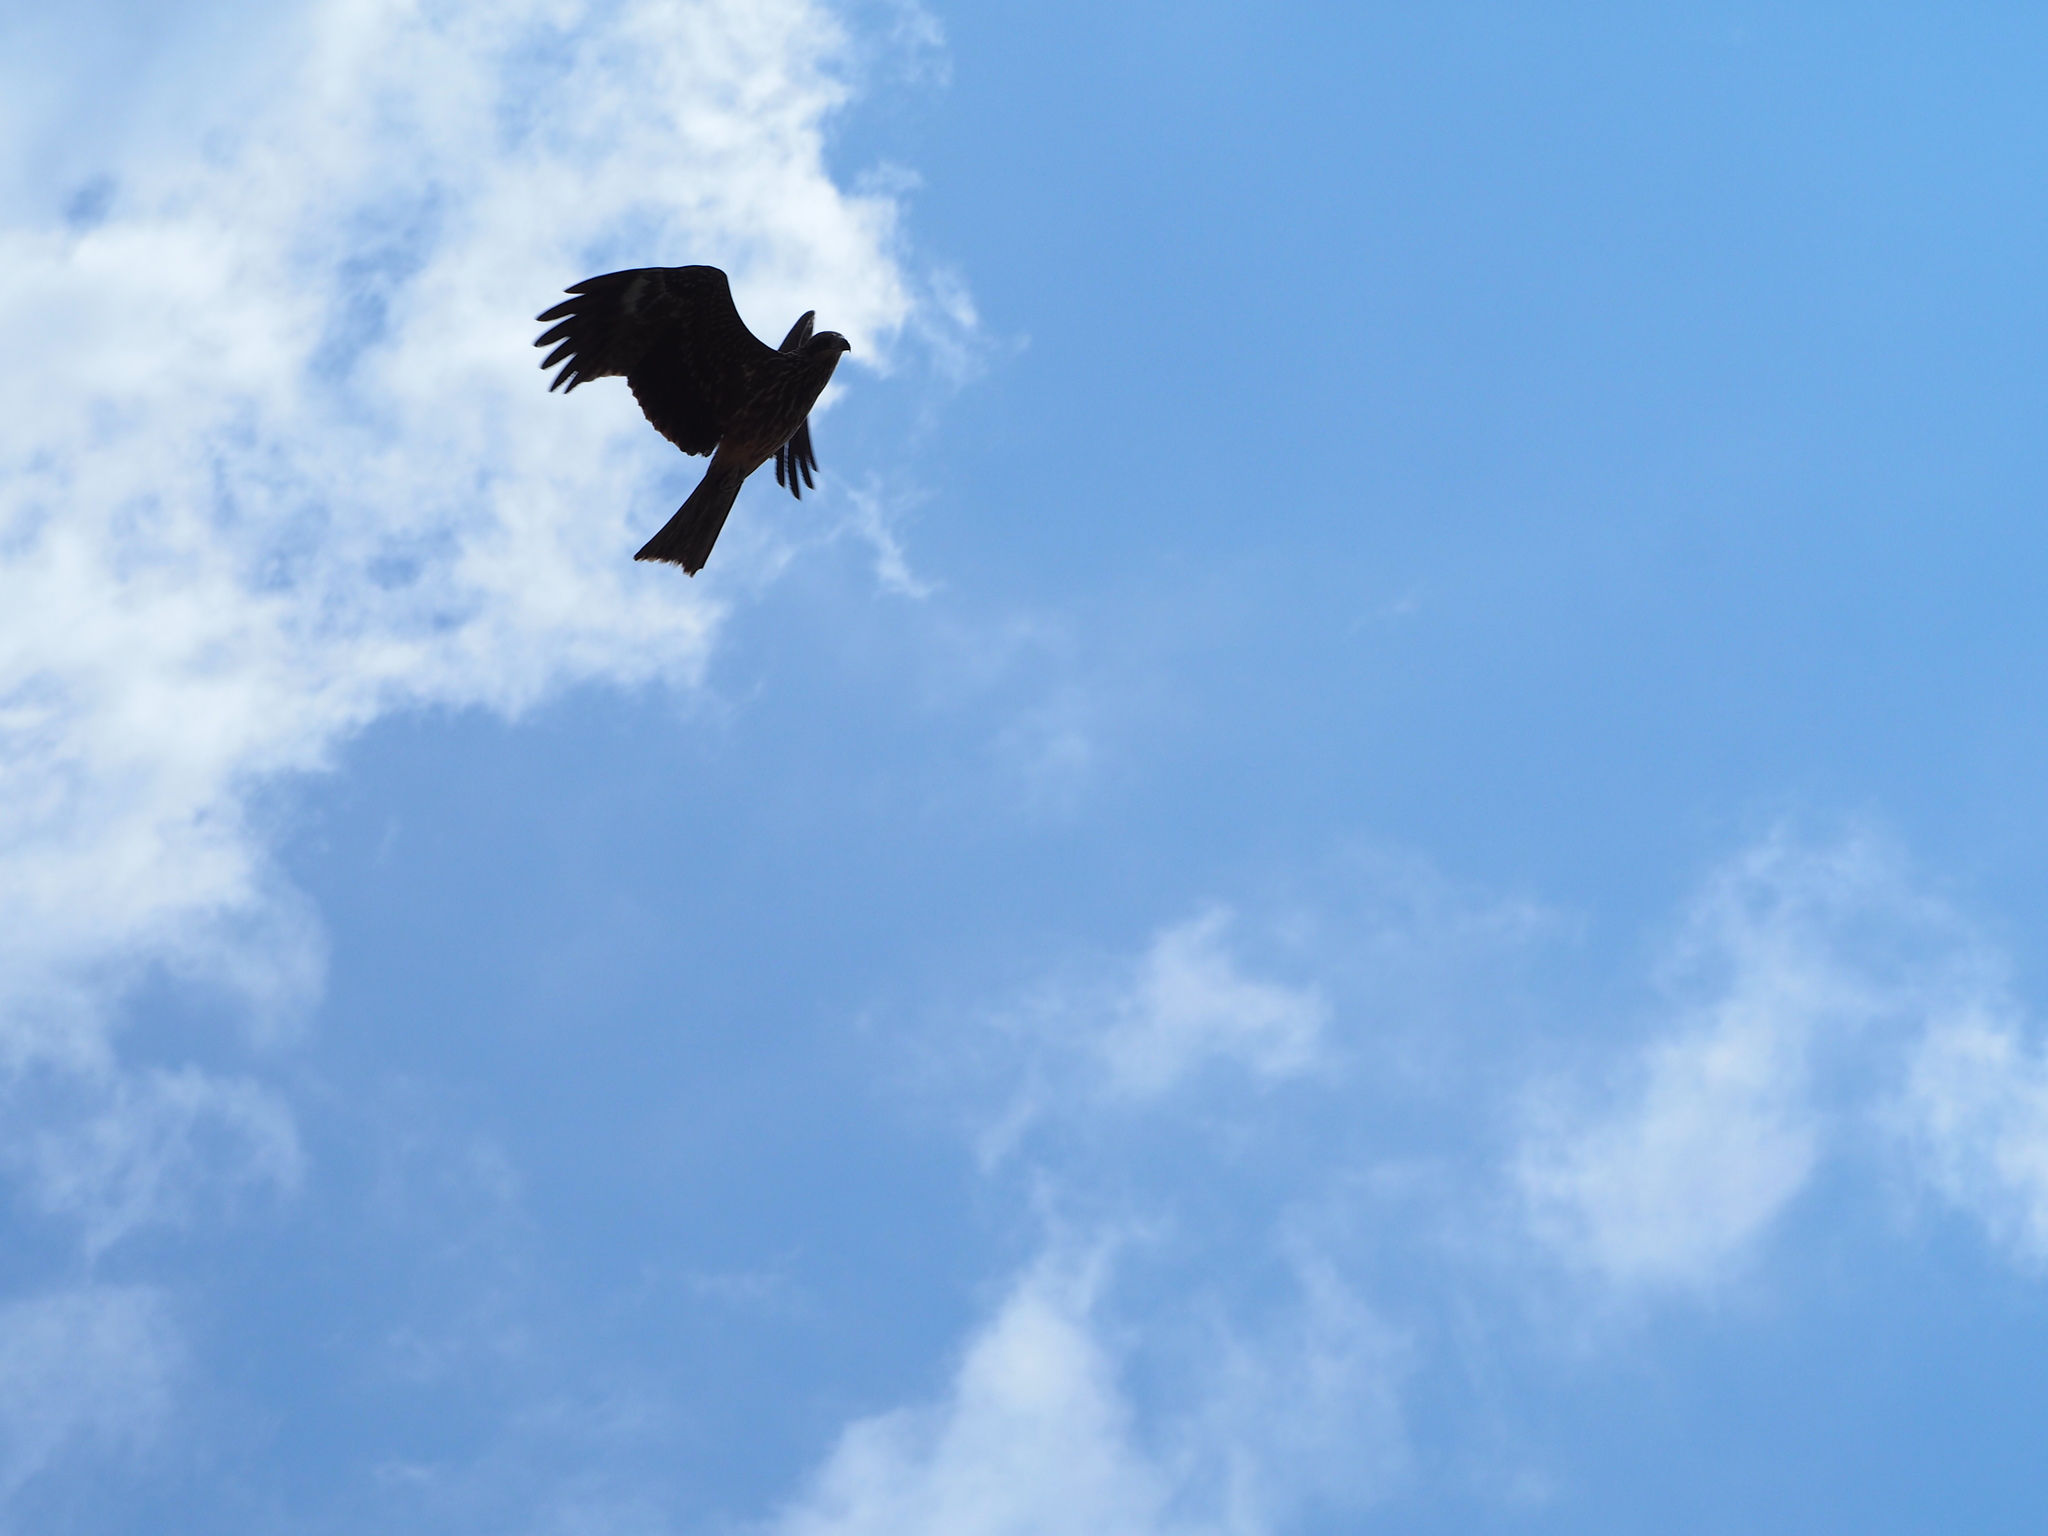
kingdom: Animalia
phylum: Chordata
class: Aves
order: Accipitriformes
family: Accipitridae
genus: Milvus
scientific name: Milvus migrans
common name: Black kite
